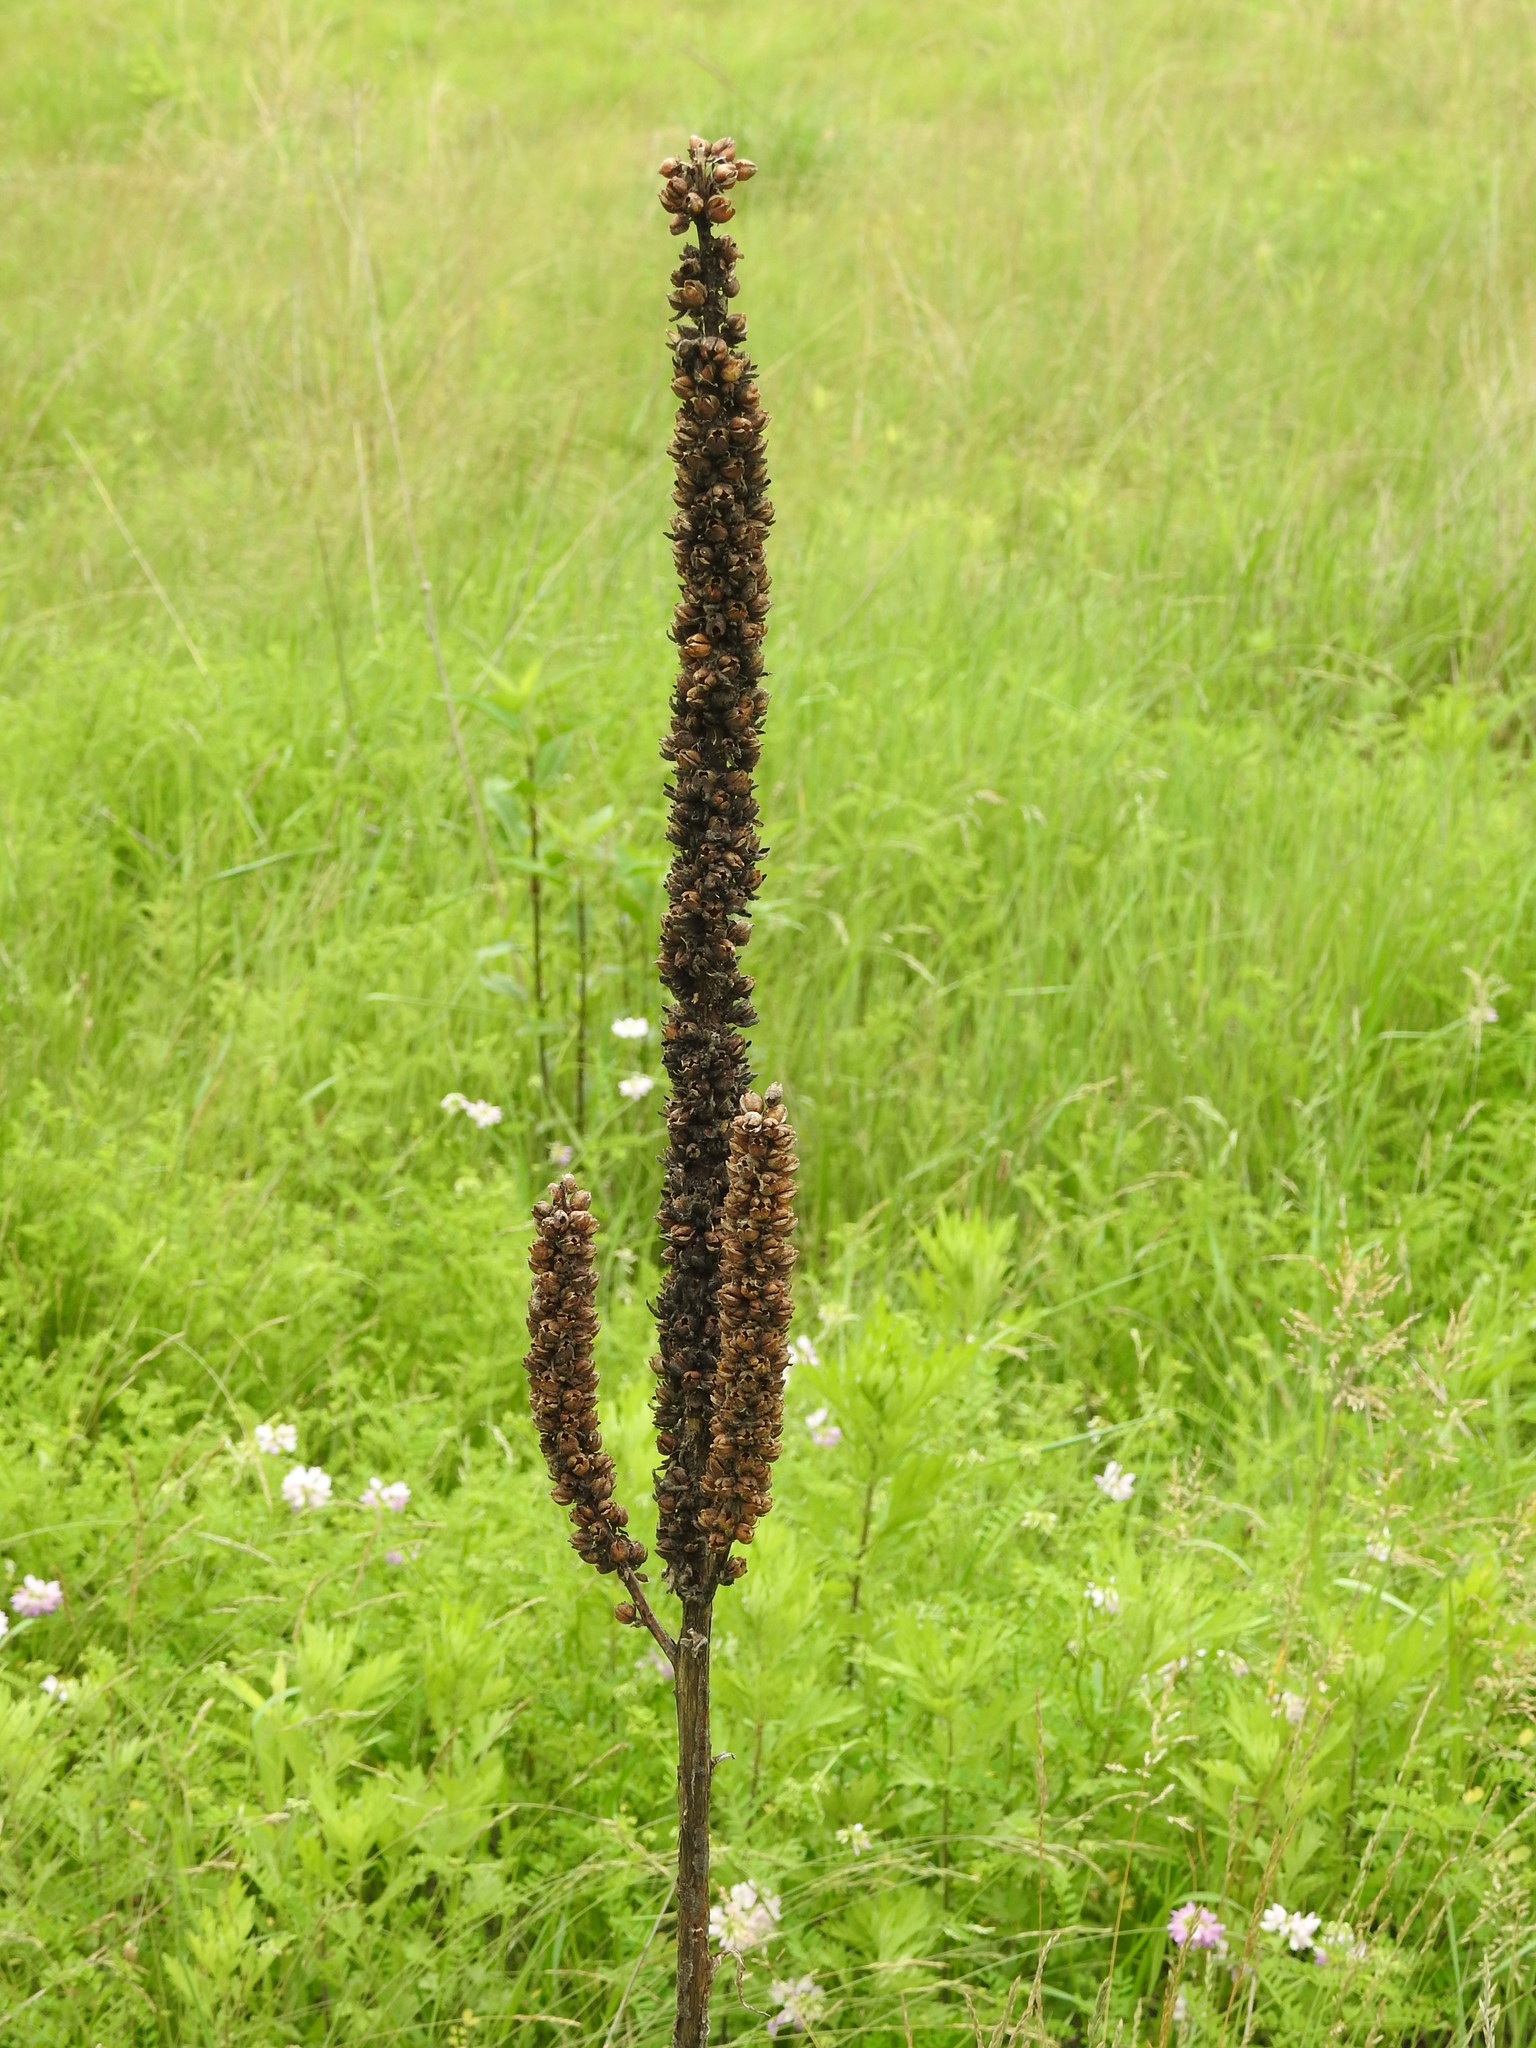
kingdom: Plantae
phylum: Tracheophyta
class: Magnoliopsida
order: Lamiales
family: Scrophulariaceae
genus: Verbascum
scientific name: Verbascum thapsus
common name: Common mullein
